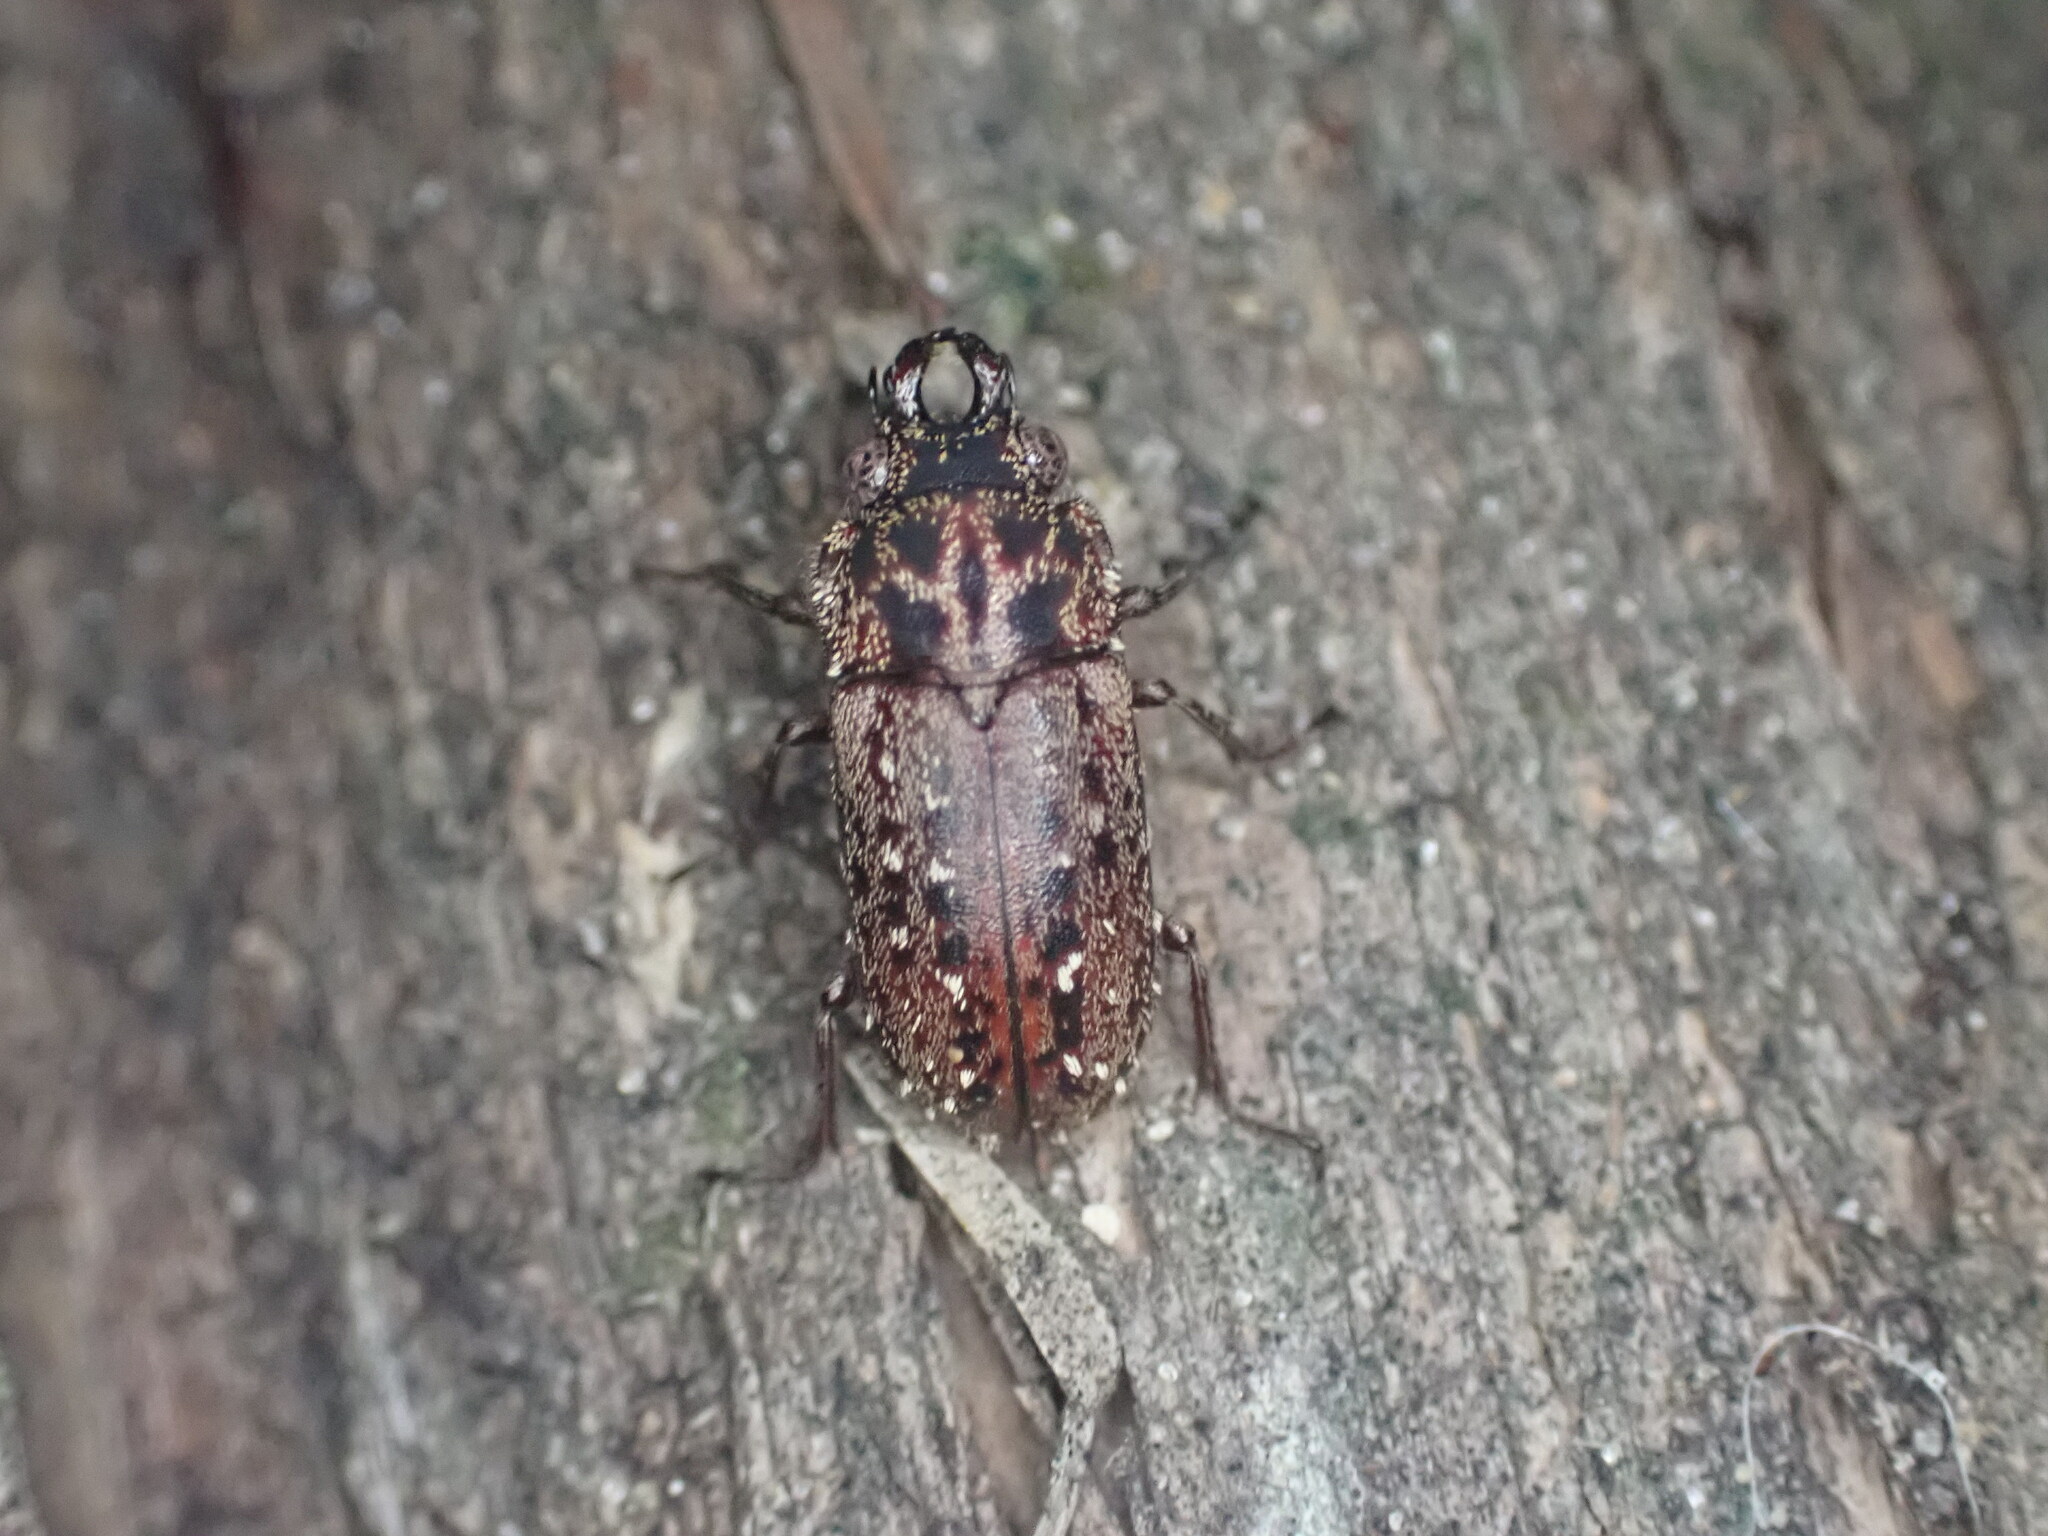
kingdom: Animalia
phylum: Arthropoda
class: Insecta
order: Coleoptera
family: Lucanidae
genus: Mitophyllus
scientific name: Mitophyllus arcuatus
